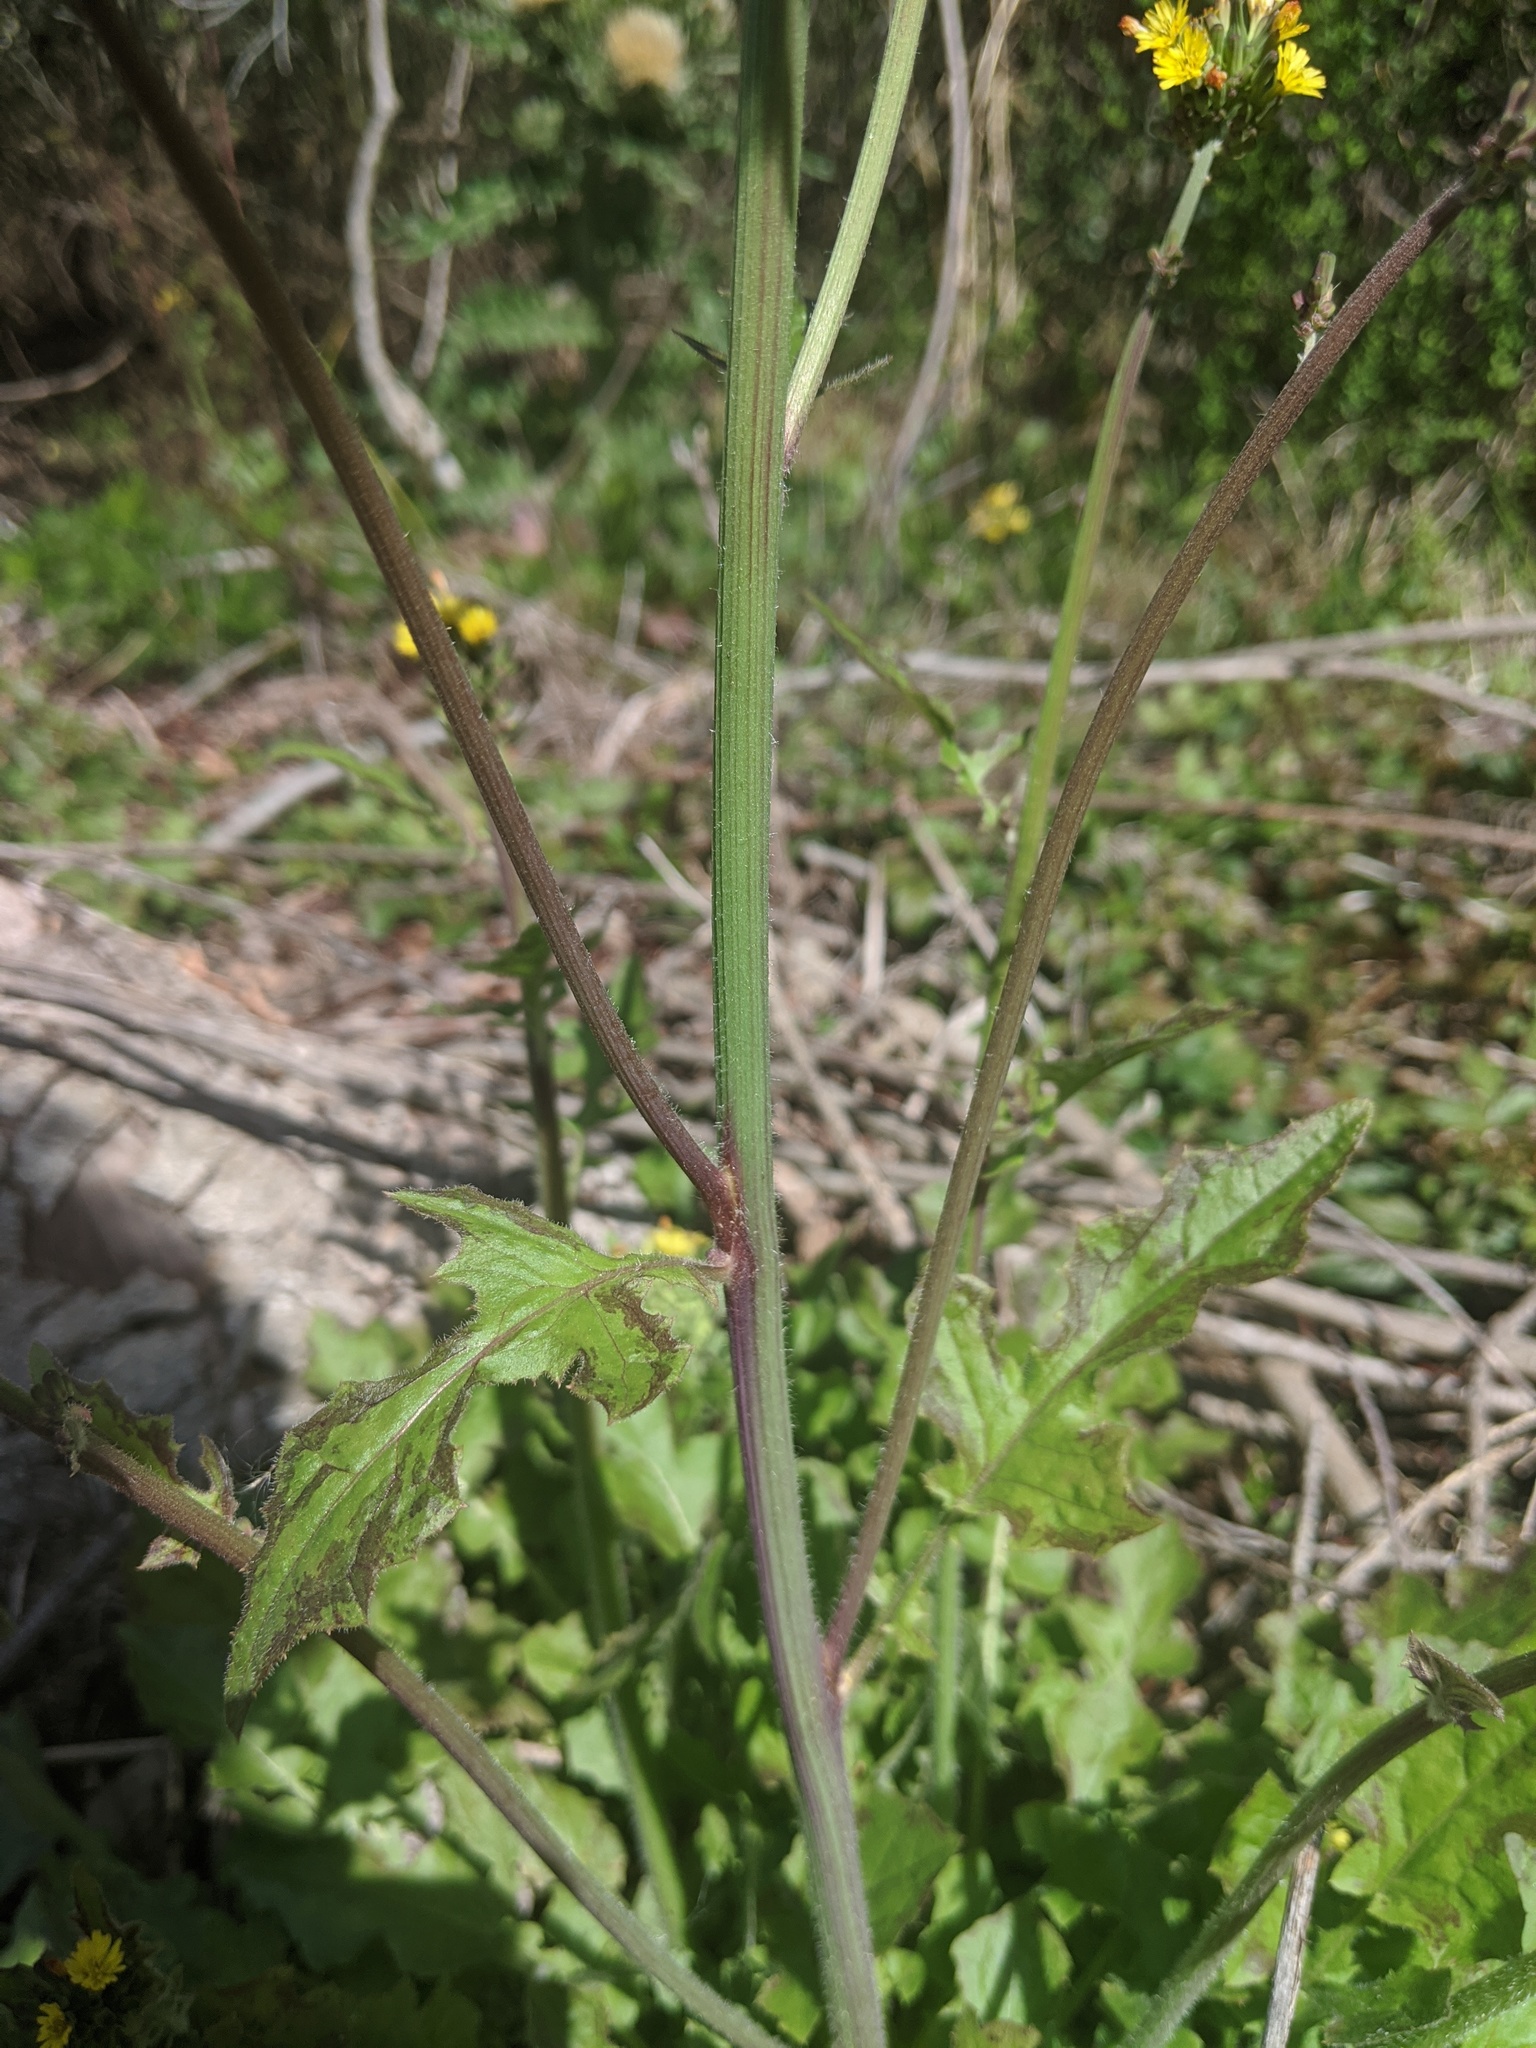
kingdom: Plantae
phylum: Tracheophyta
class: Magnoliopsida
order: Asterales
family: Asteraceae
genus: Youngia
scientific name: Youngia japonica
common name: Oriental false hawksbeard
